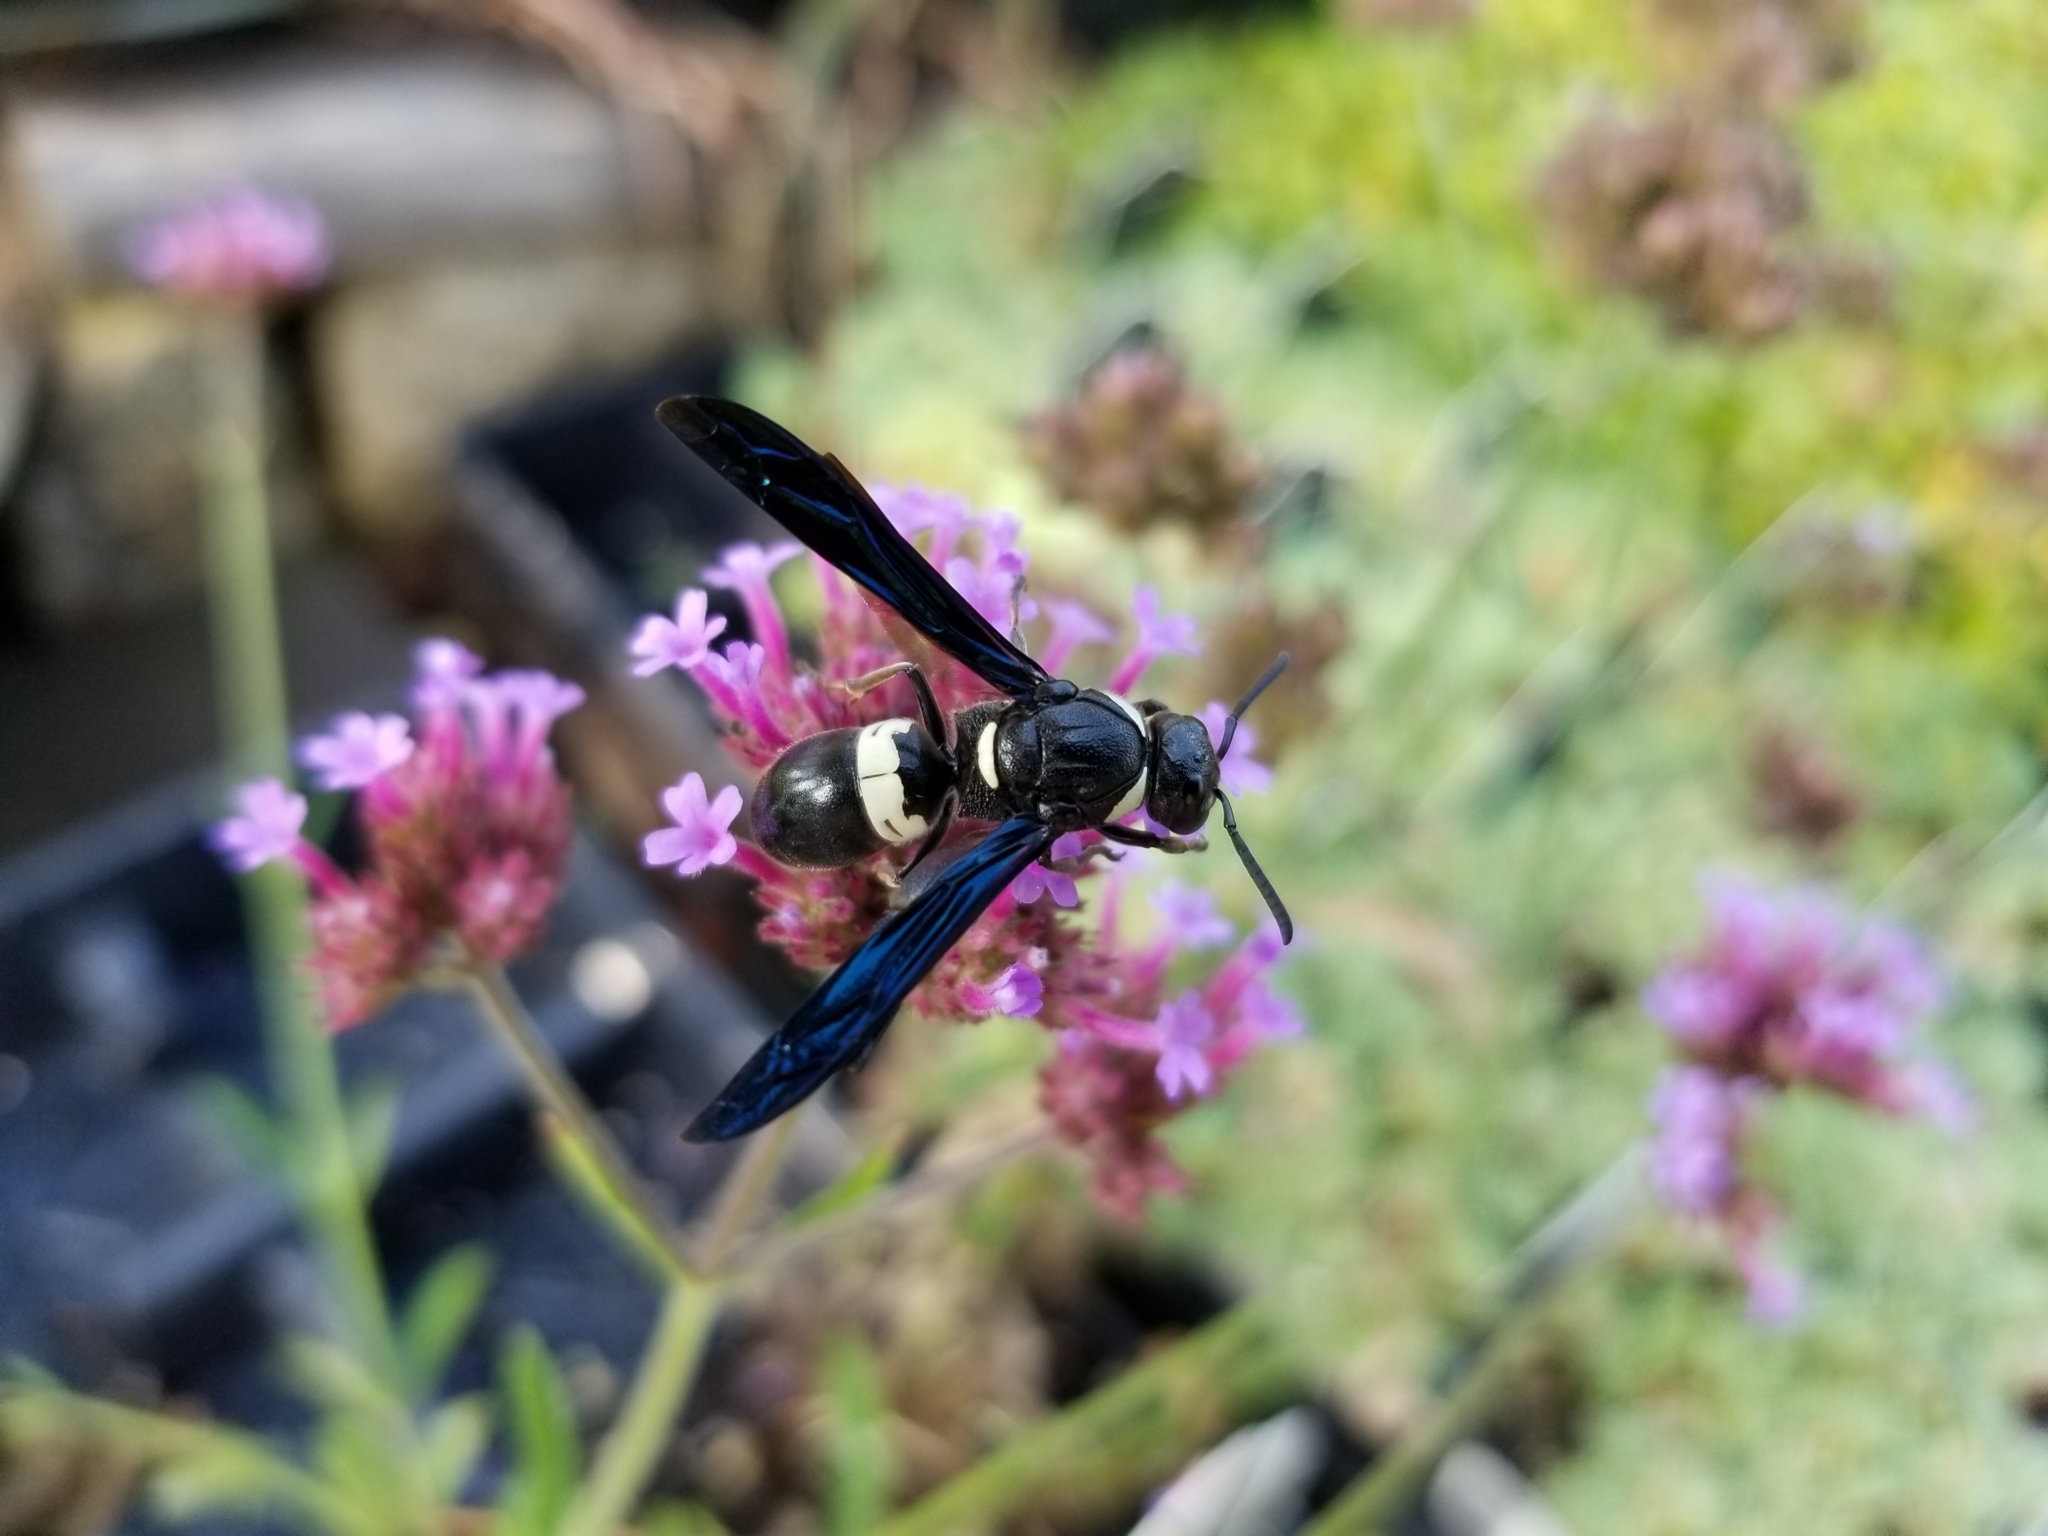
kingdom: Animalia
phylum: Arthropoda
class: Insecta
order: Hymenoptera
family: Eumenidae
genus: Monobia
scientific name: Monobia quadridens
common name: Four-toothed mason wasp
